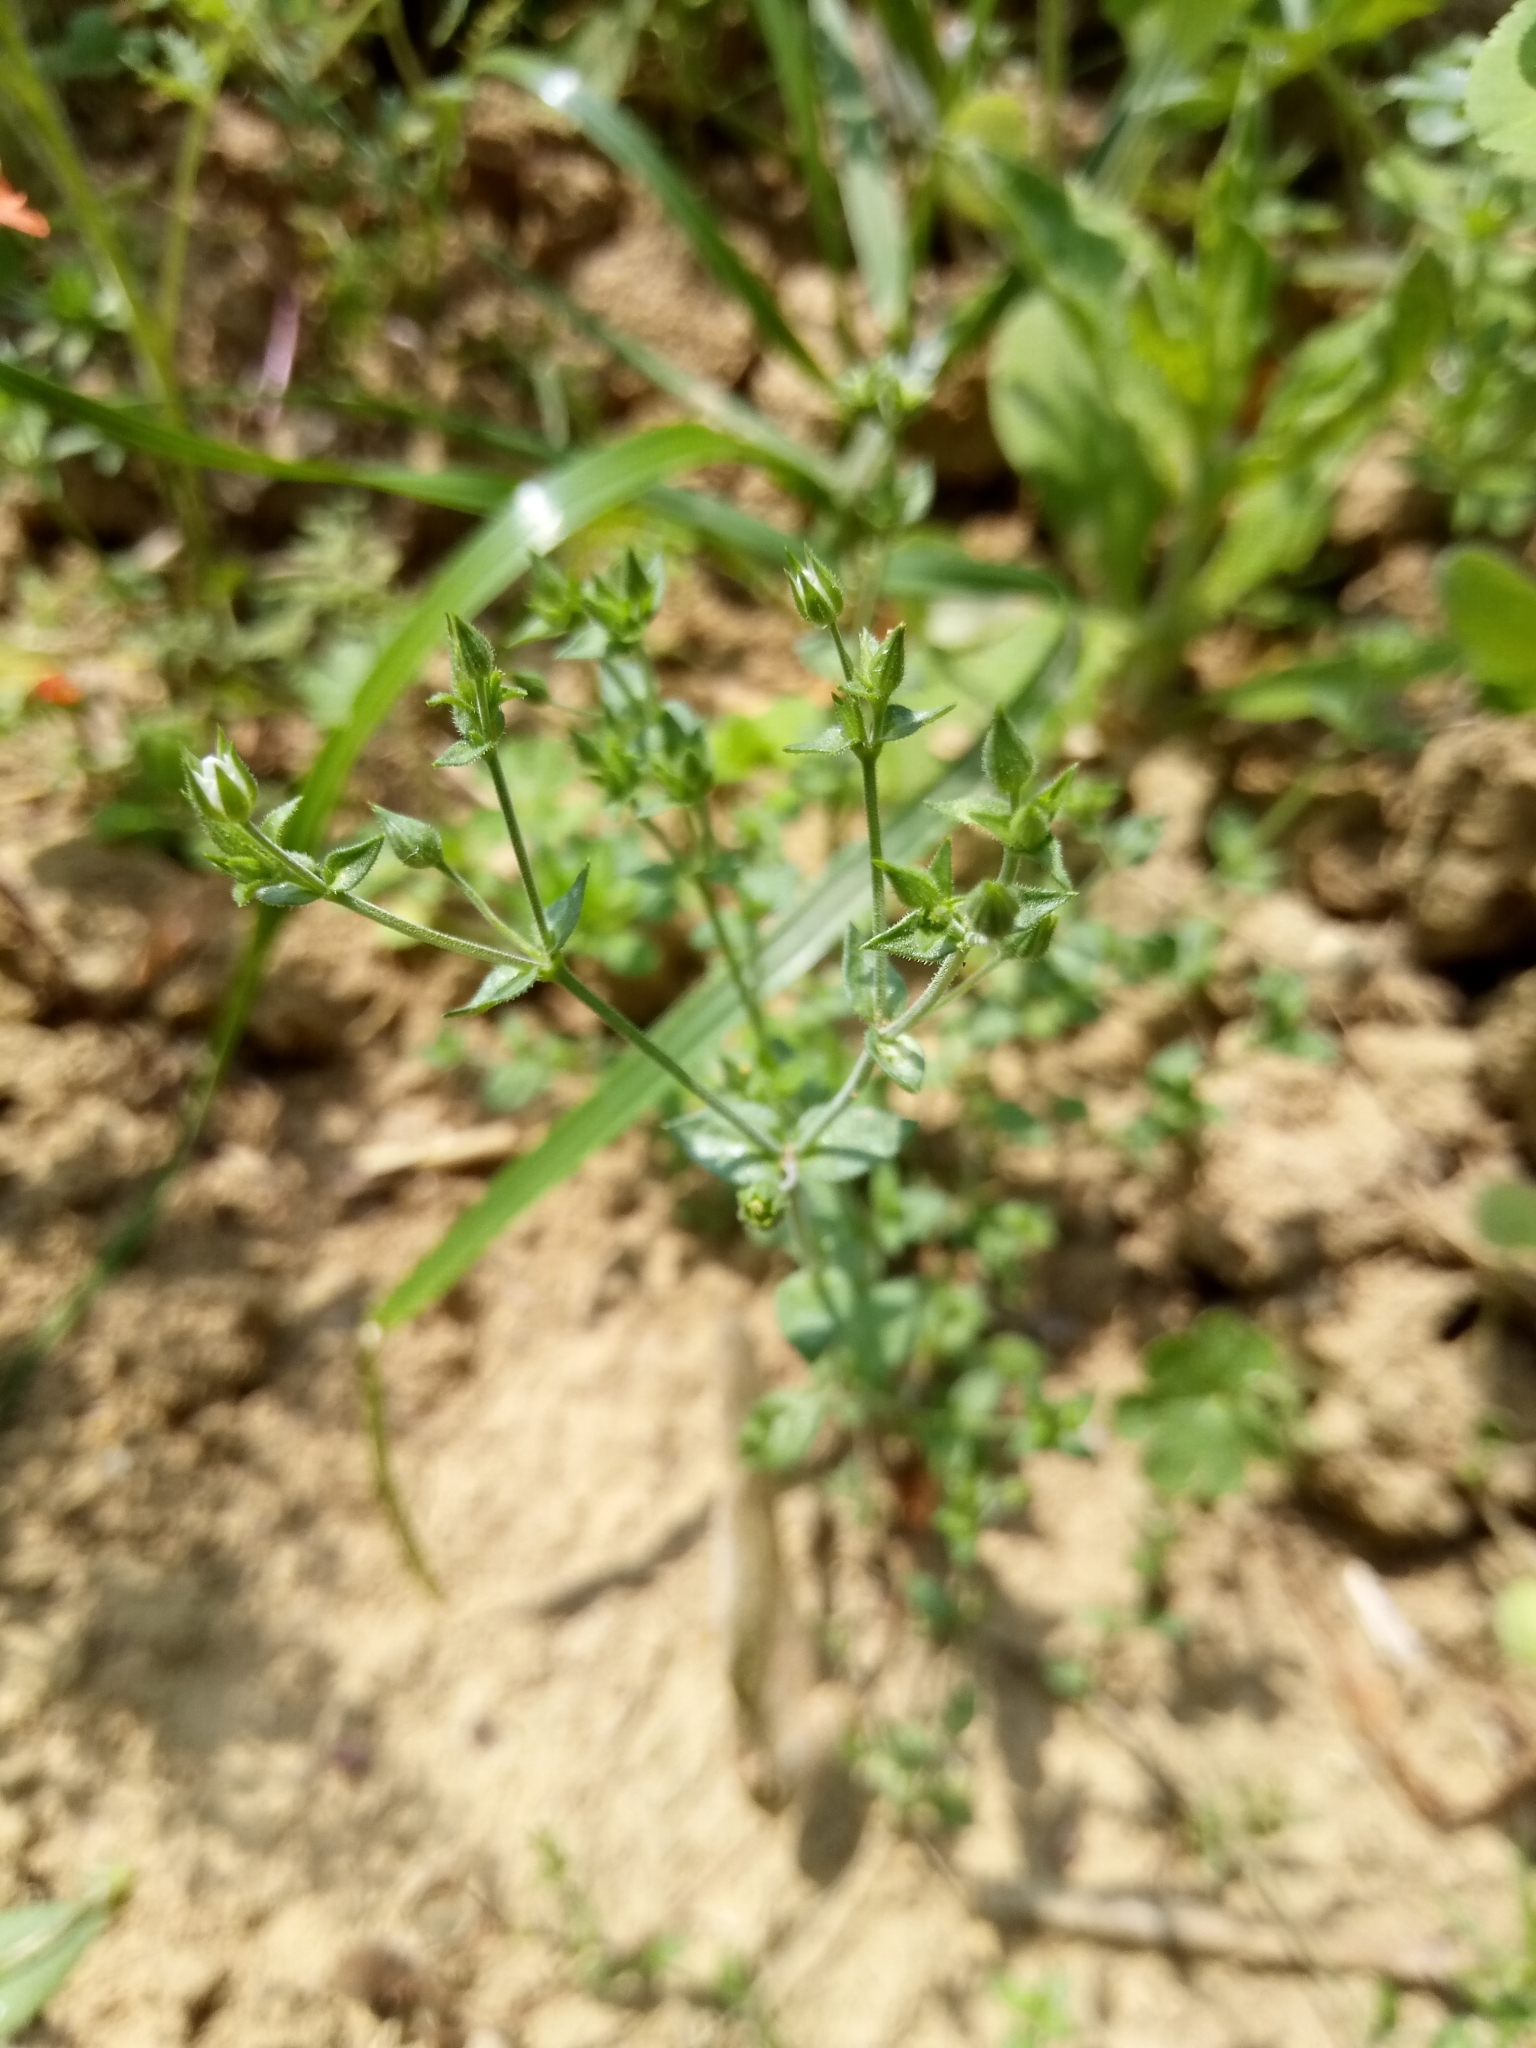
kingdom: Plantae
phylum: Tracheophyta
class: Magnoliopsida
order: Caryophyllales
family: Caryophyllaceae
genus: Arenaria
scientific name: Arenaria serpyllifolia
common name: Thyme-leaved sandwort
